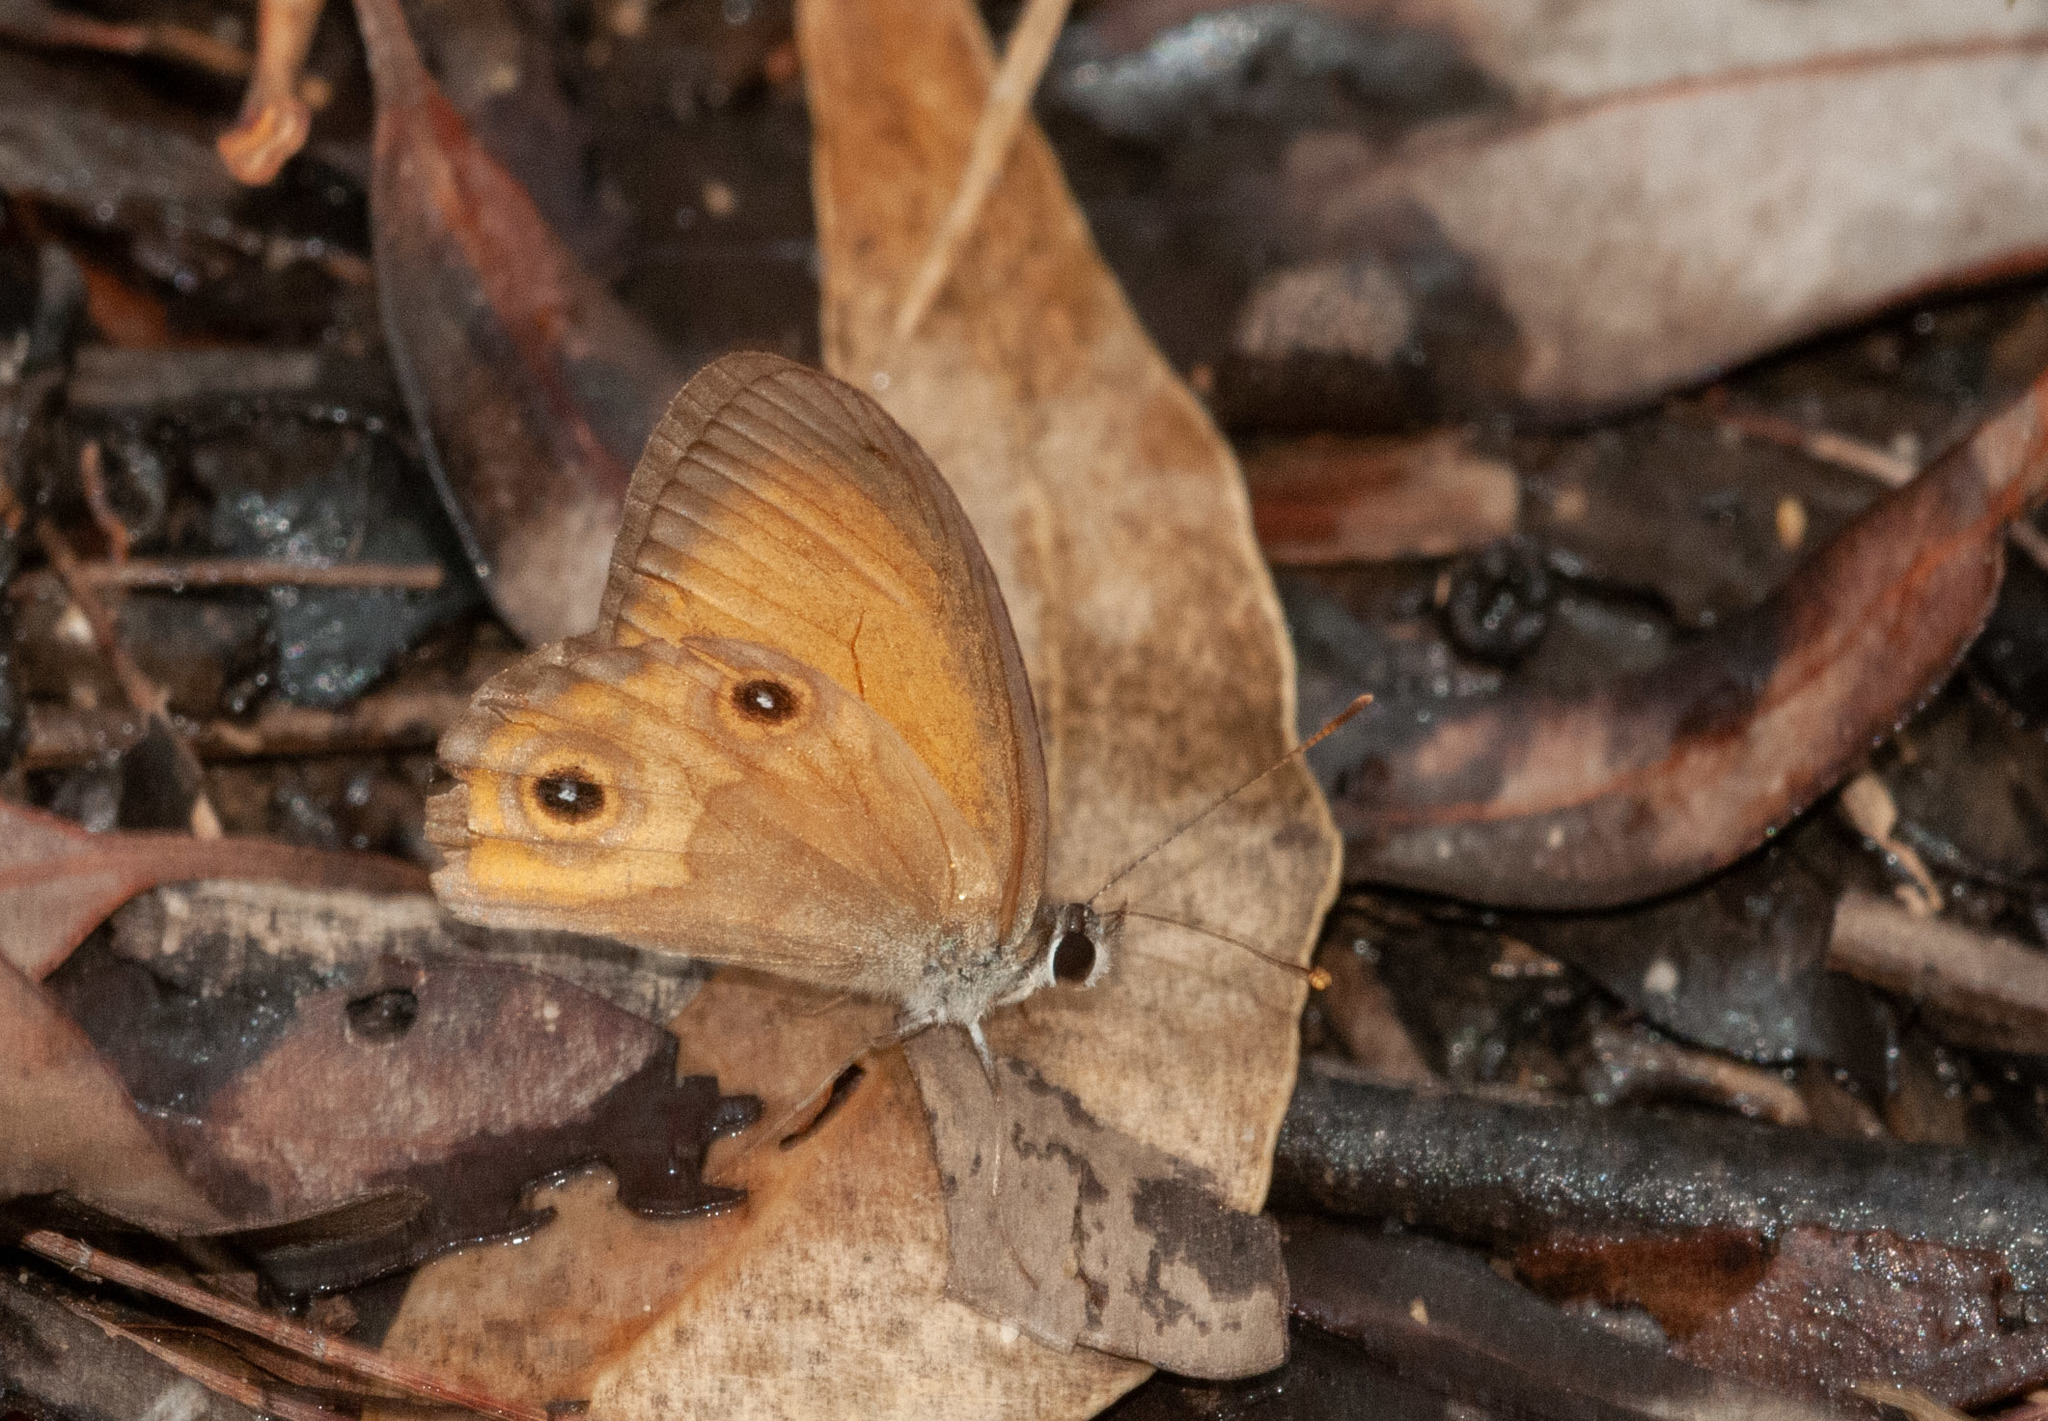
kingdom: Animalia
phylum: Arthropoda
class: Insecta
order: Lepidoptera
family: Nymphalidae
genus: Hypocysta
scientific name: Hypocysta adiante
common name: Orange ringlet
